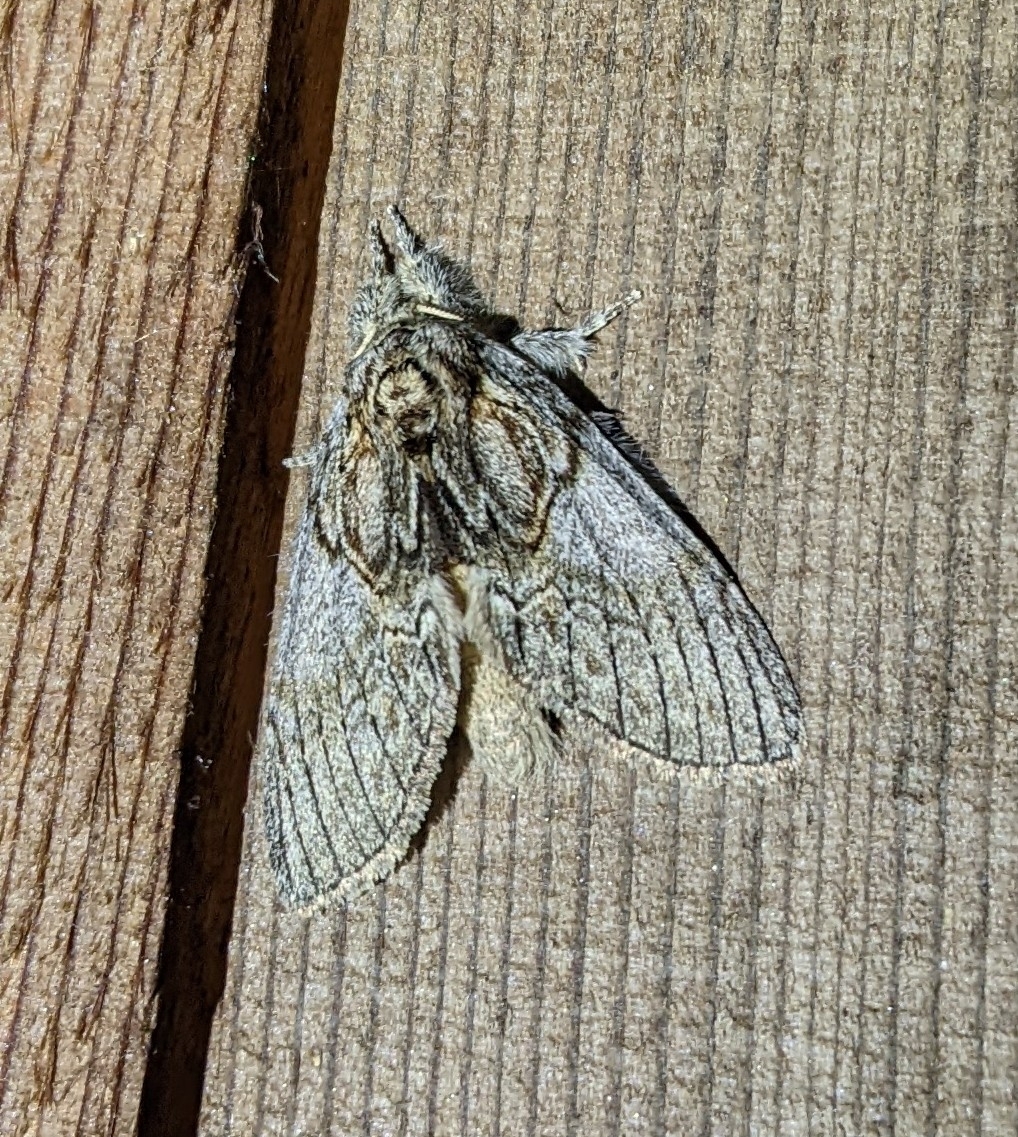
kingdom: Animalia
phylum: Arthropoda
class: Insecta
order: Lepidoptera
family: Notodontidae
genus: Peridea
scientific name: Peridea basitriens
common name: Oval-based prominent
